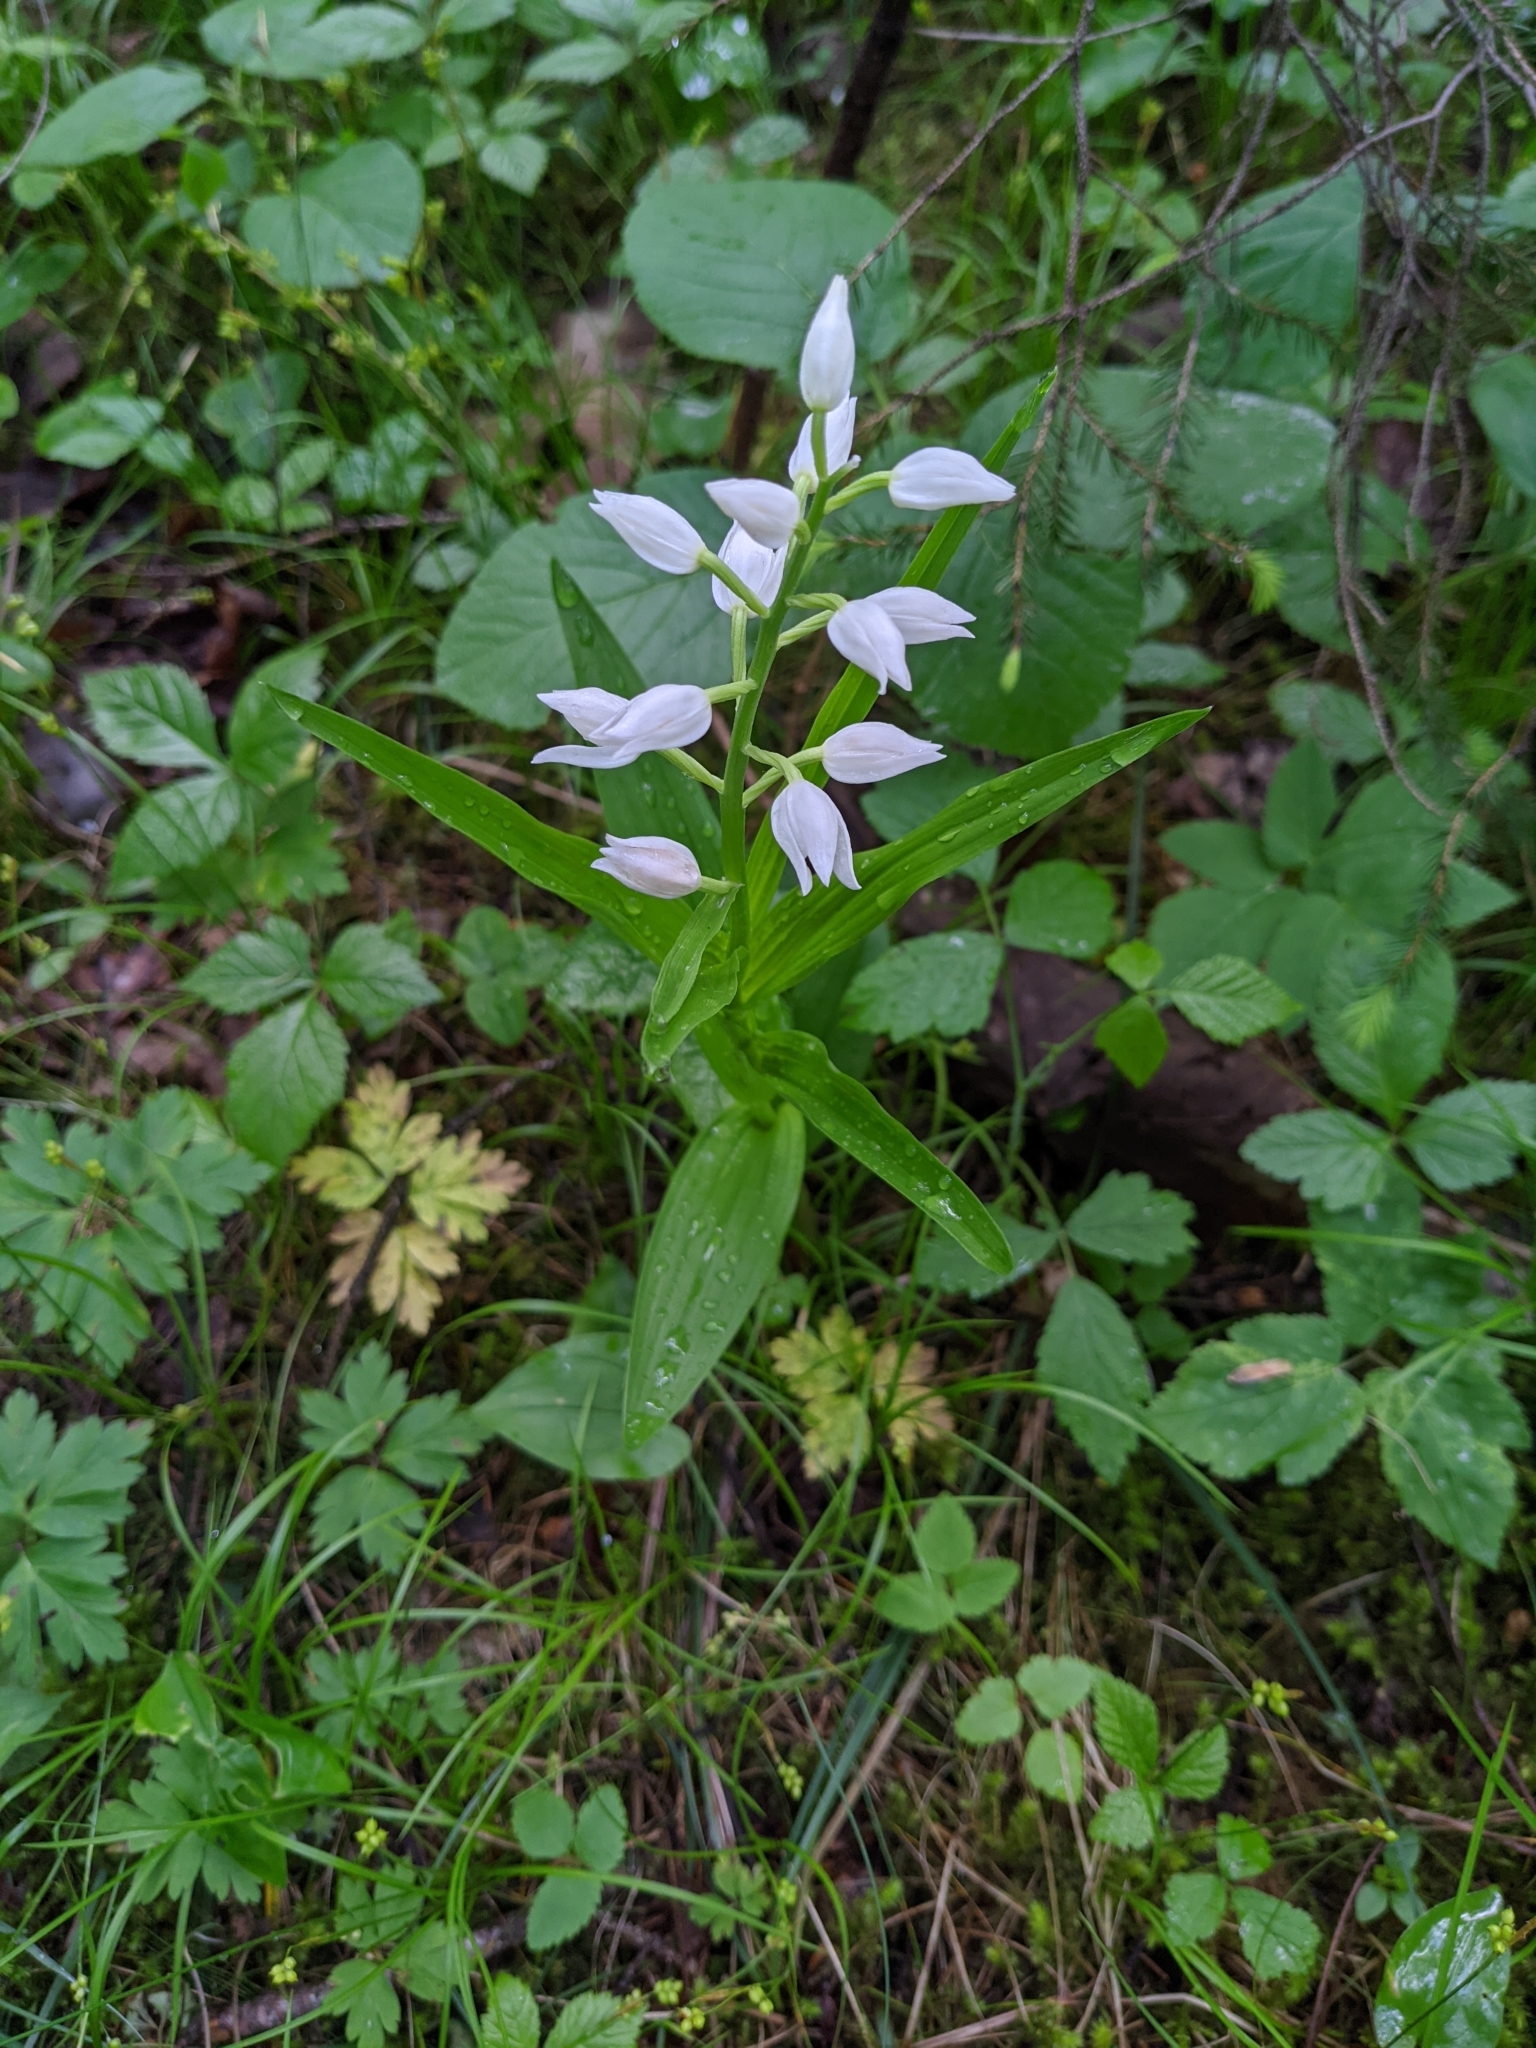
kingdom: Plantae
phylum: Tracheophyta
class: Liliopsida
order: Asparagales
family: Orchidaceae
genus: Cephalanthera
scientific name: Cephalanthera longifolia
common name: Narrow-leaved helleborine
